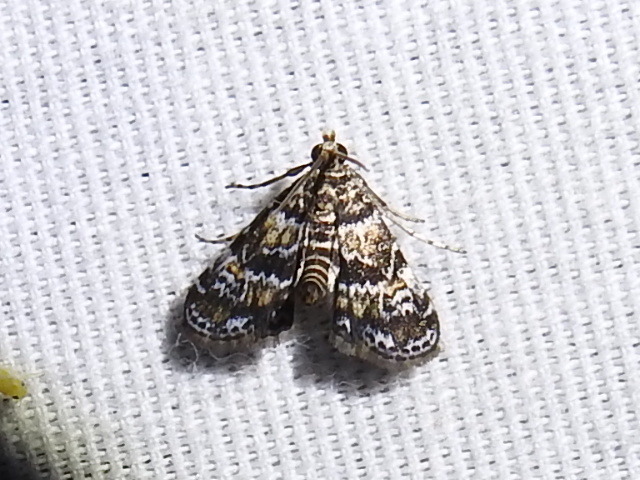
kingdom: Animalia
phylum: Arthropoda
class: Insecta
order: Lepidoptera
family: Crambidae
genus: Elophila
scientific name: Elophila obliteralis
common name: Waterlily leafcutter moth
